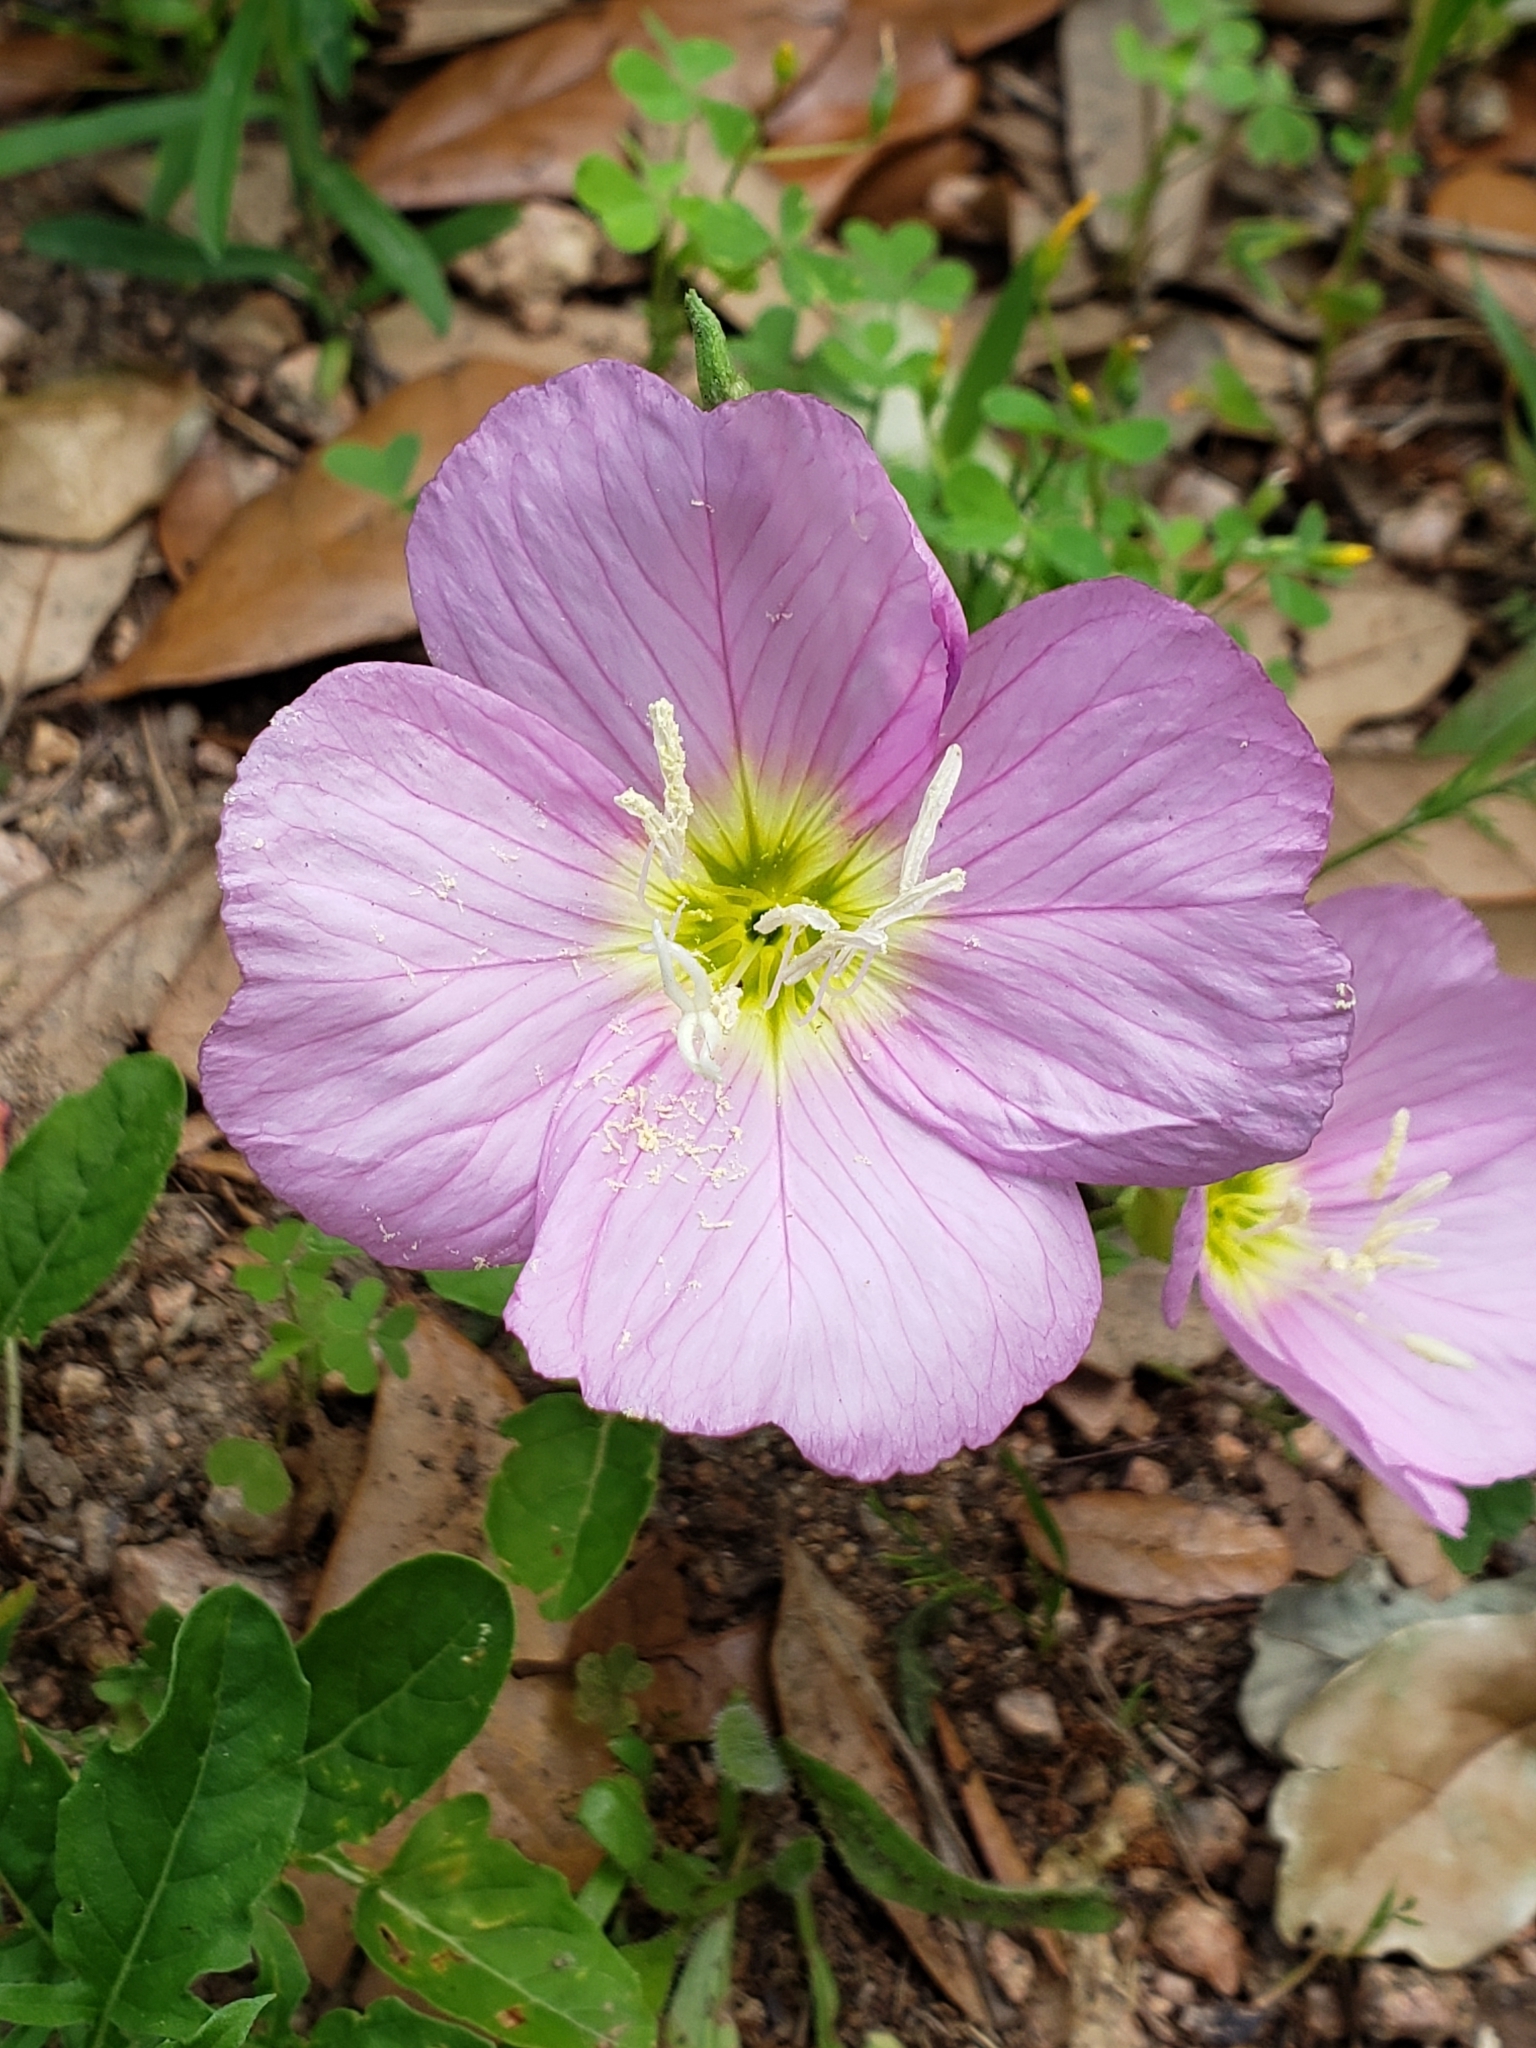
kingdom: Plantae
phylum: Tracheophyta
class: Magnoliopsida
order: Myrtales
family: Onagraceae
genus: Oenothera
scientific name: Oenothera speciosa
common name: White evening-primrose
